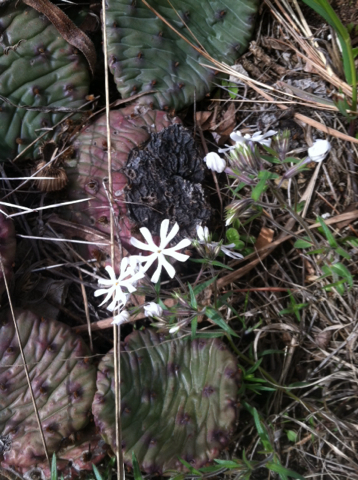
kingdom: Plantae
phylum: Tracheophyta
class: Magnoliopsida
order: Ericales
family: Polemoniaceae
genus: Phlox
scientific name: Phlox bifida
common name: Sand phlox
